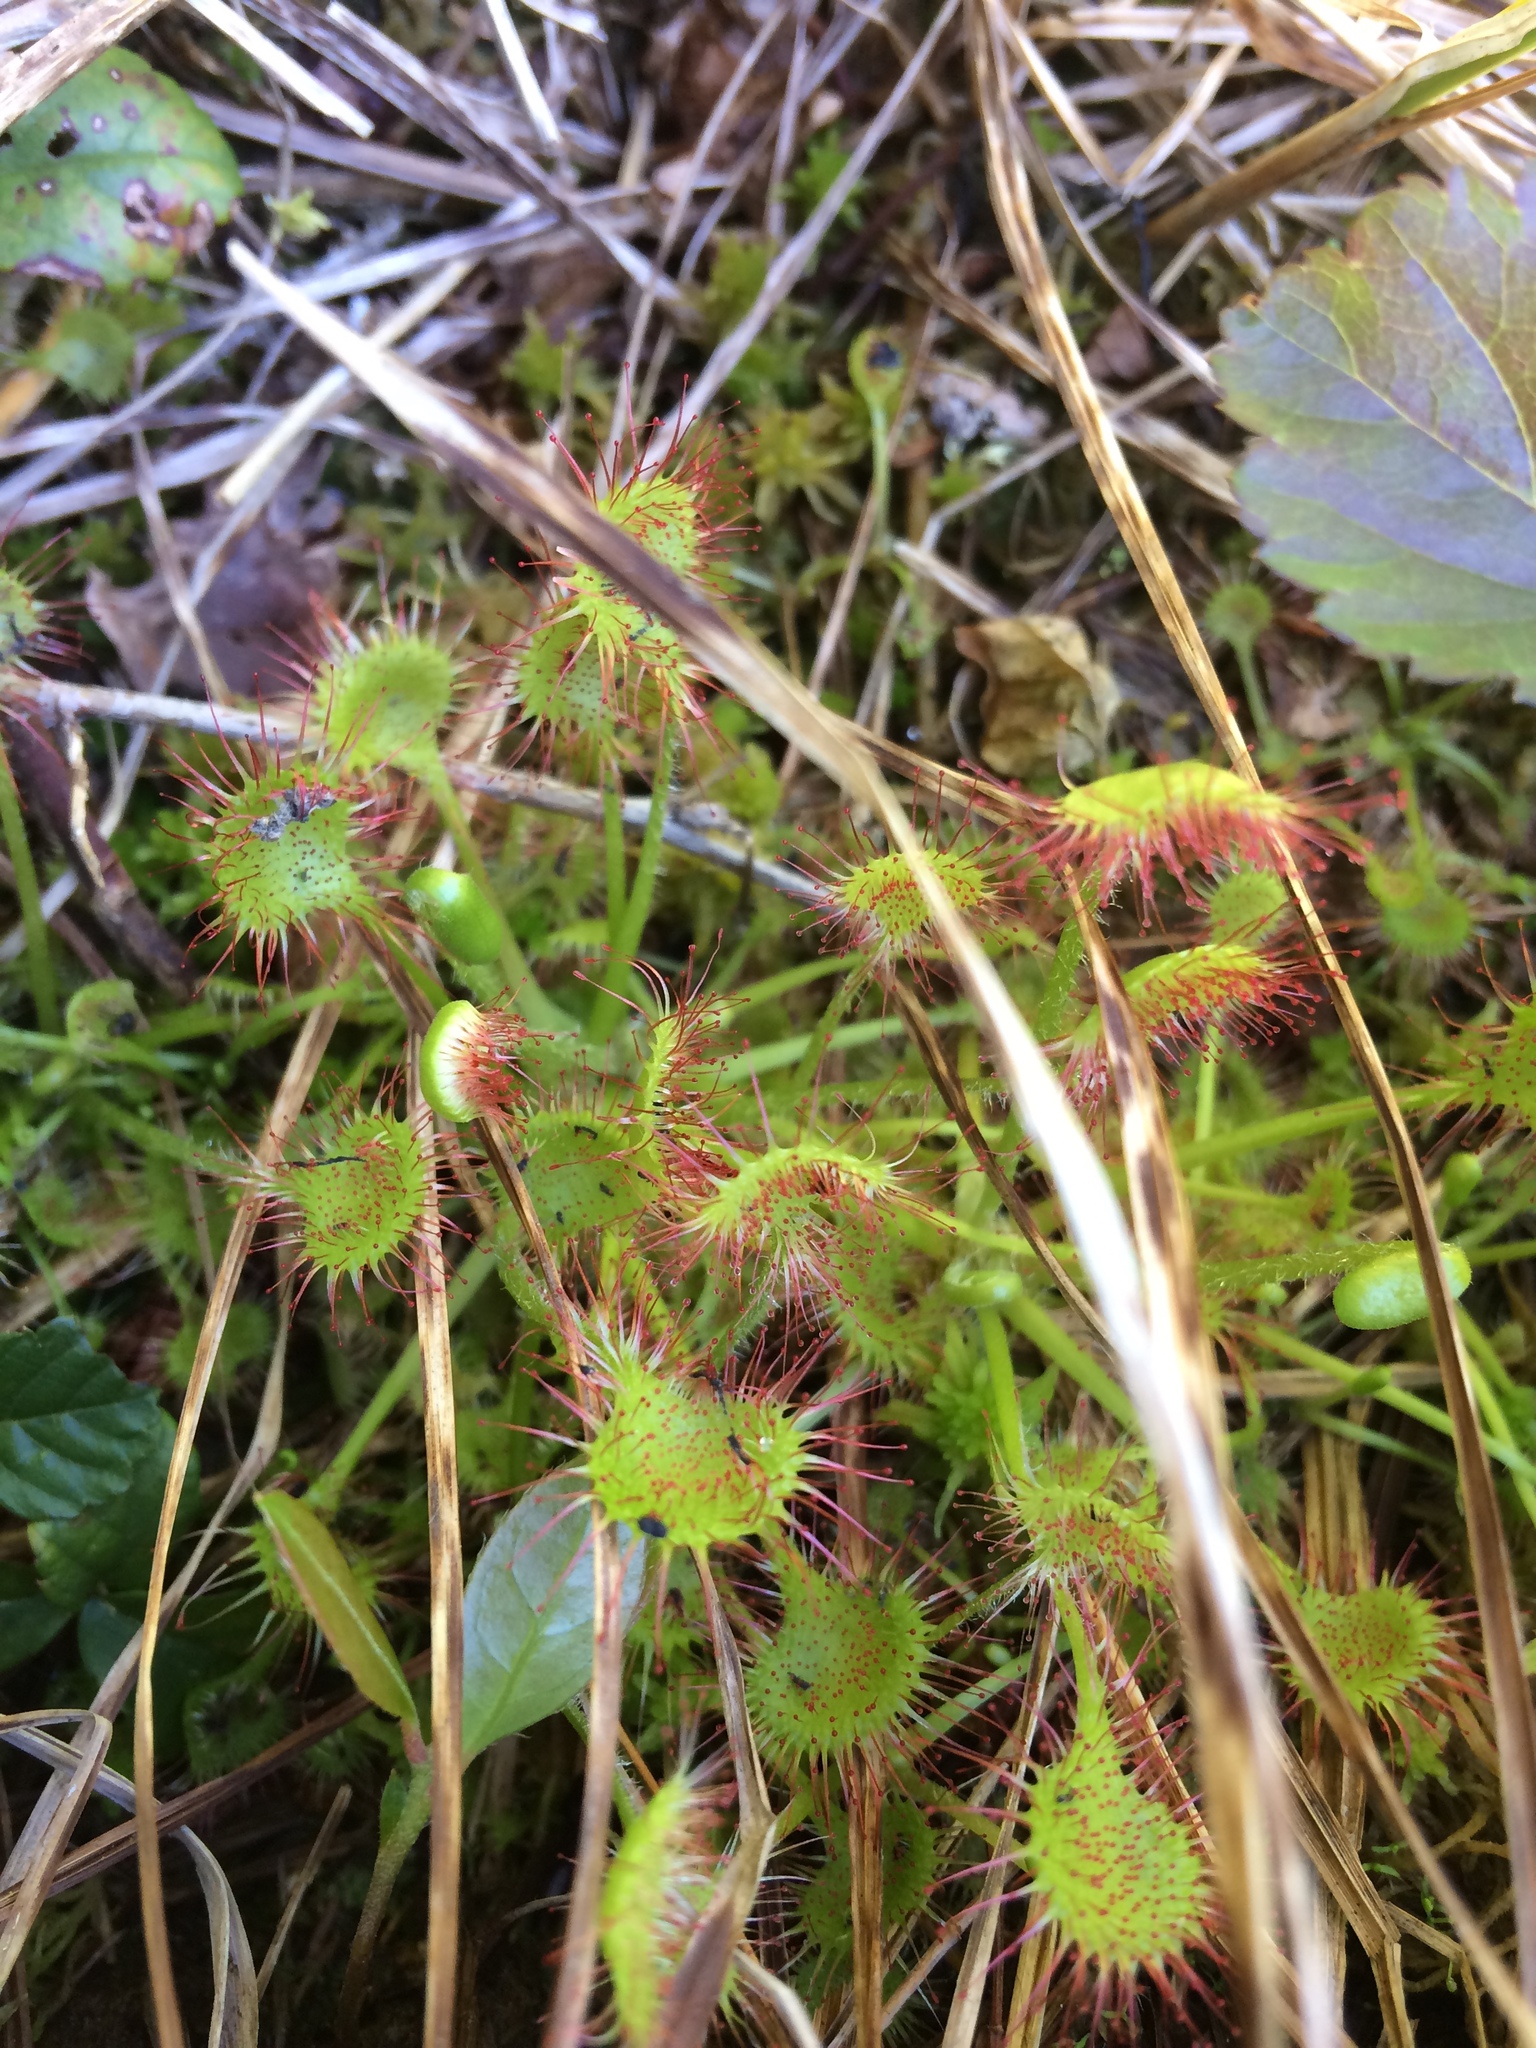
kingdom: Plantae
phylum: Tracheophyta
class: Magnoliopsida
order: Caryophyllales
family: Droseraceae
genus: Drosera
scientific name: Drosera rotundifolia
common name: Round-leaved sundew
